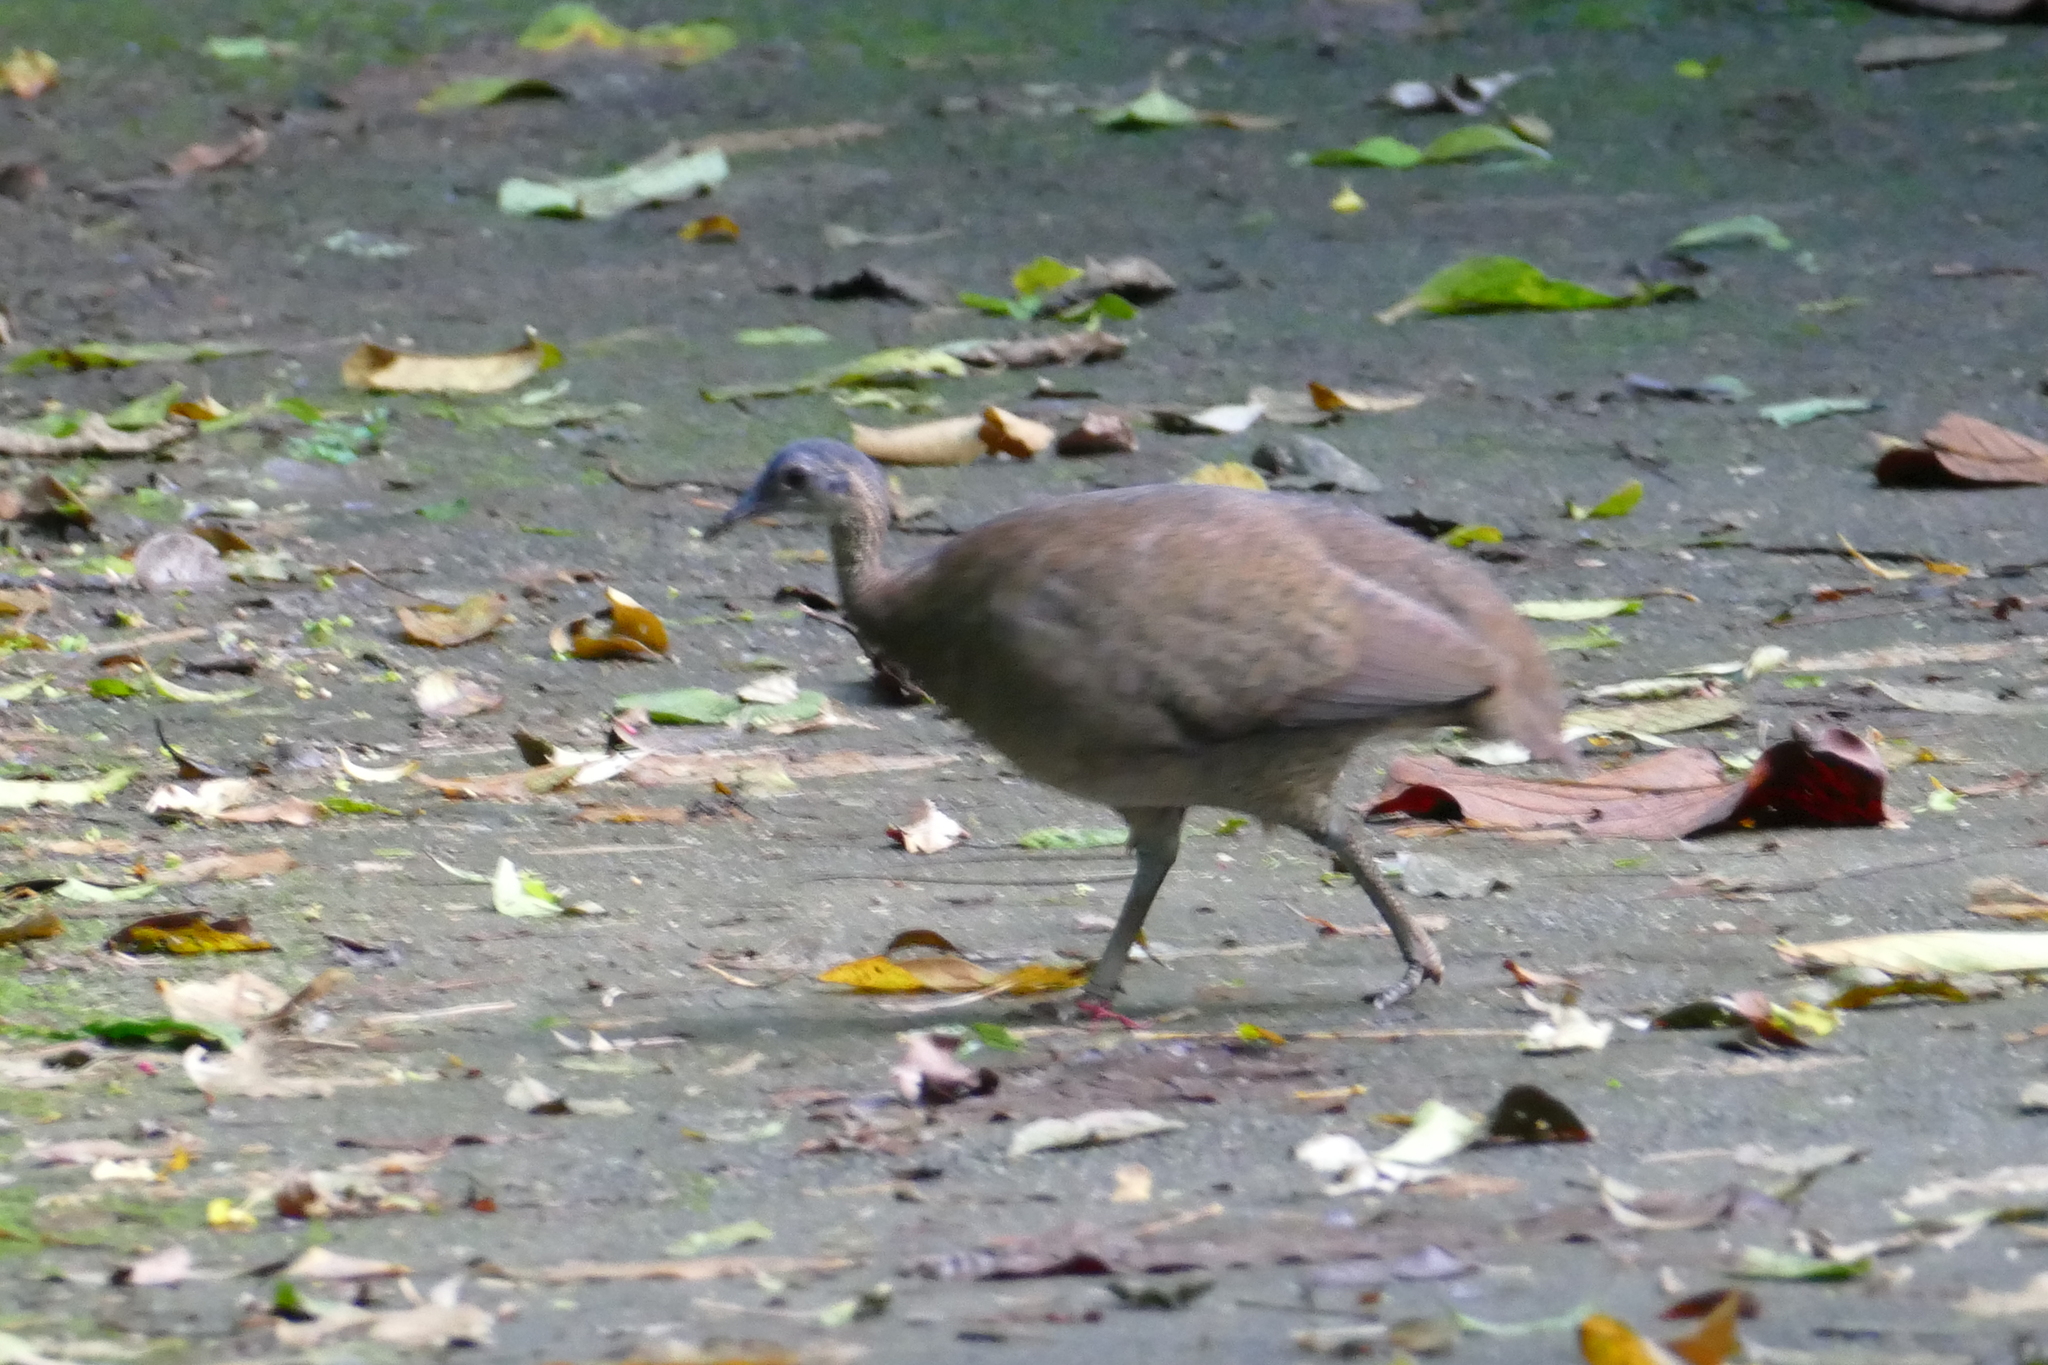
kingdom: Animalia
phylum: Chordata
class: Aves
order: Tinamiformes
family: Tinamidae
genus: Tinamus
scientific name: Tinamus major
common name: Great tinamou
